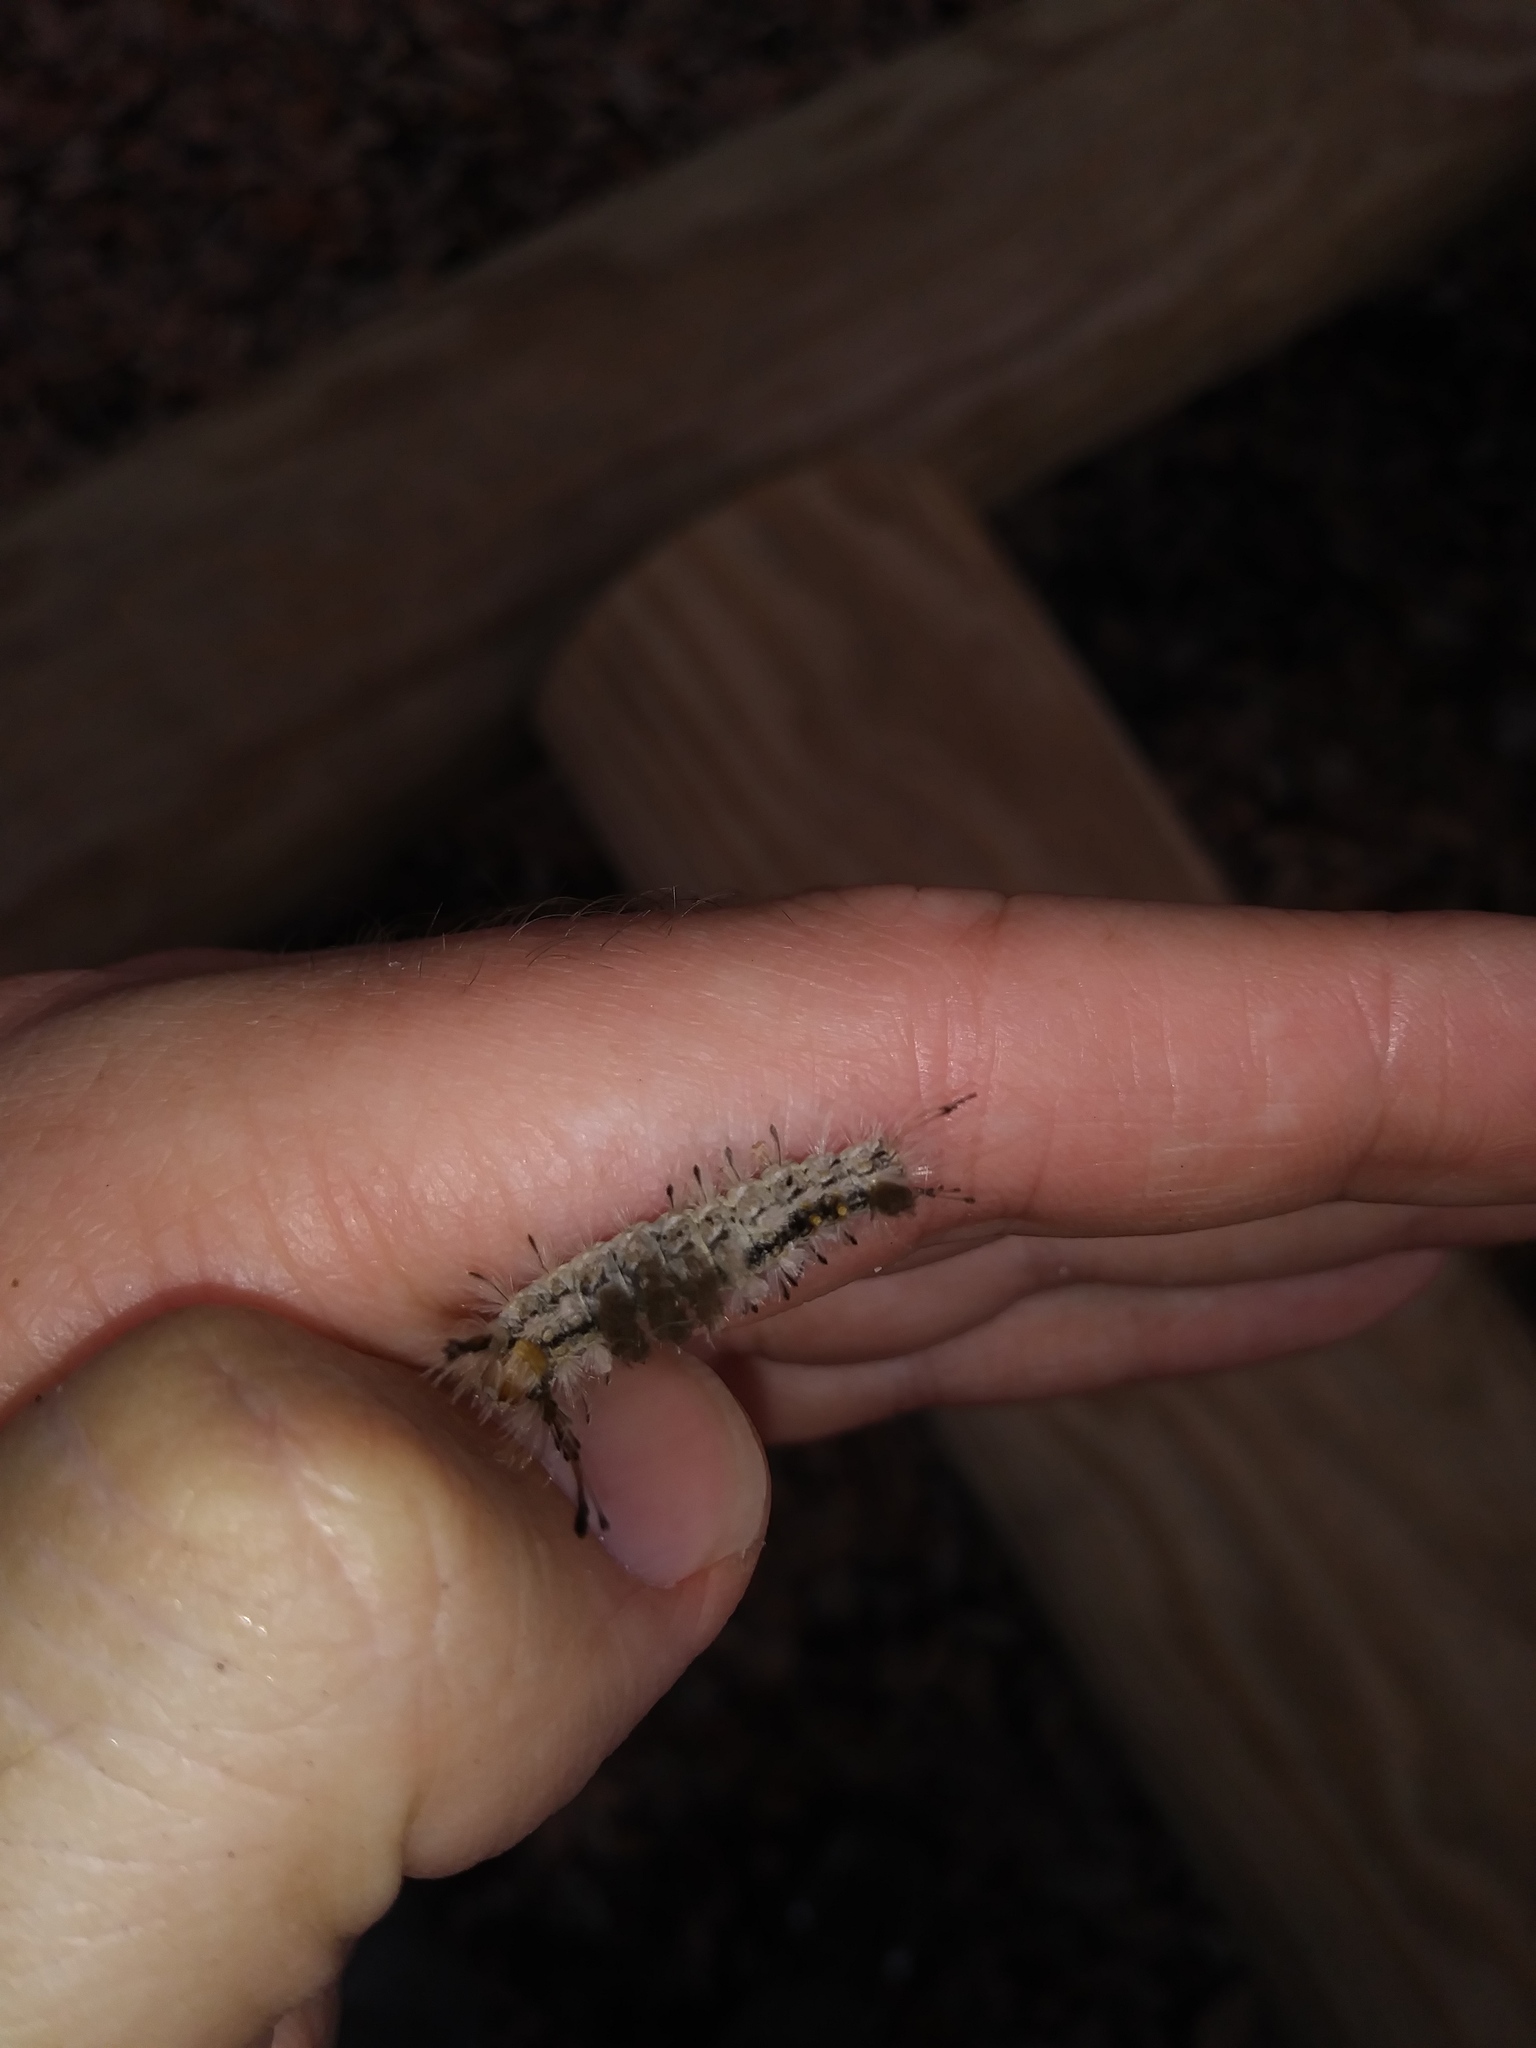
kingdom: Animalia
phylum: Arthropoda
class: Insecta
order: Lepidoptera
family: Erebidae
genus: Dasychira
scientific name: Dasychira meridionalis
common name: Southern tussock moth
